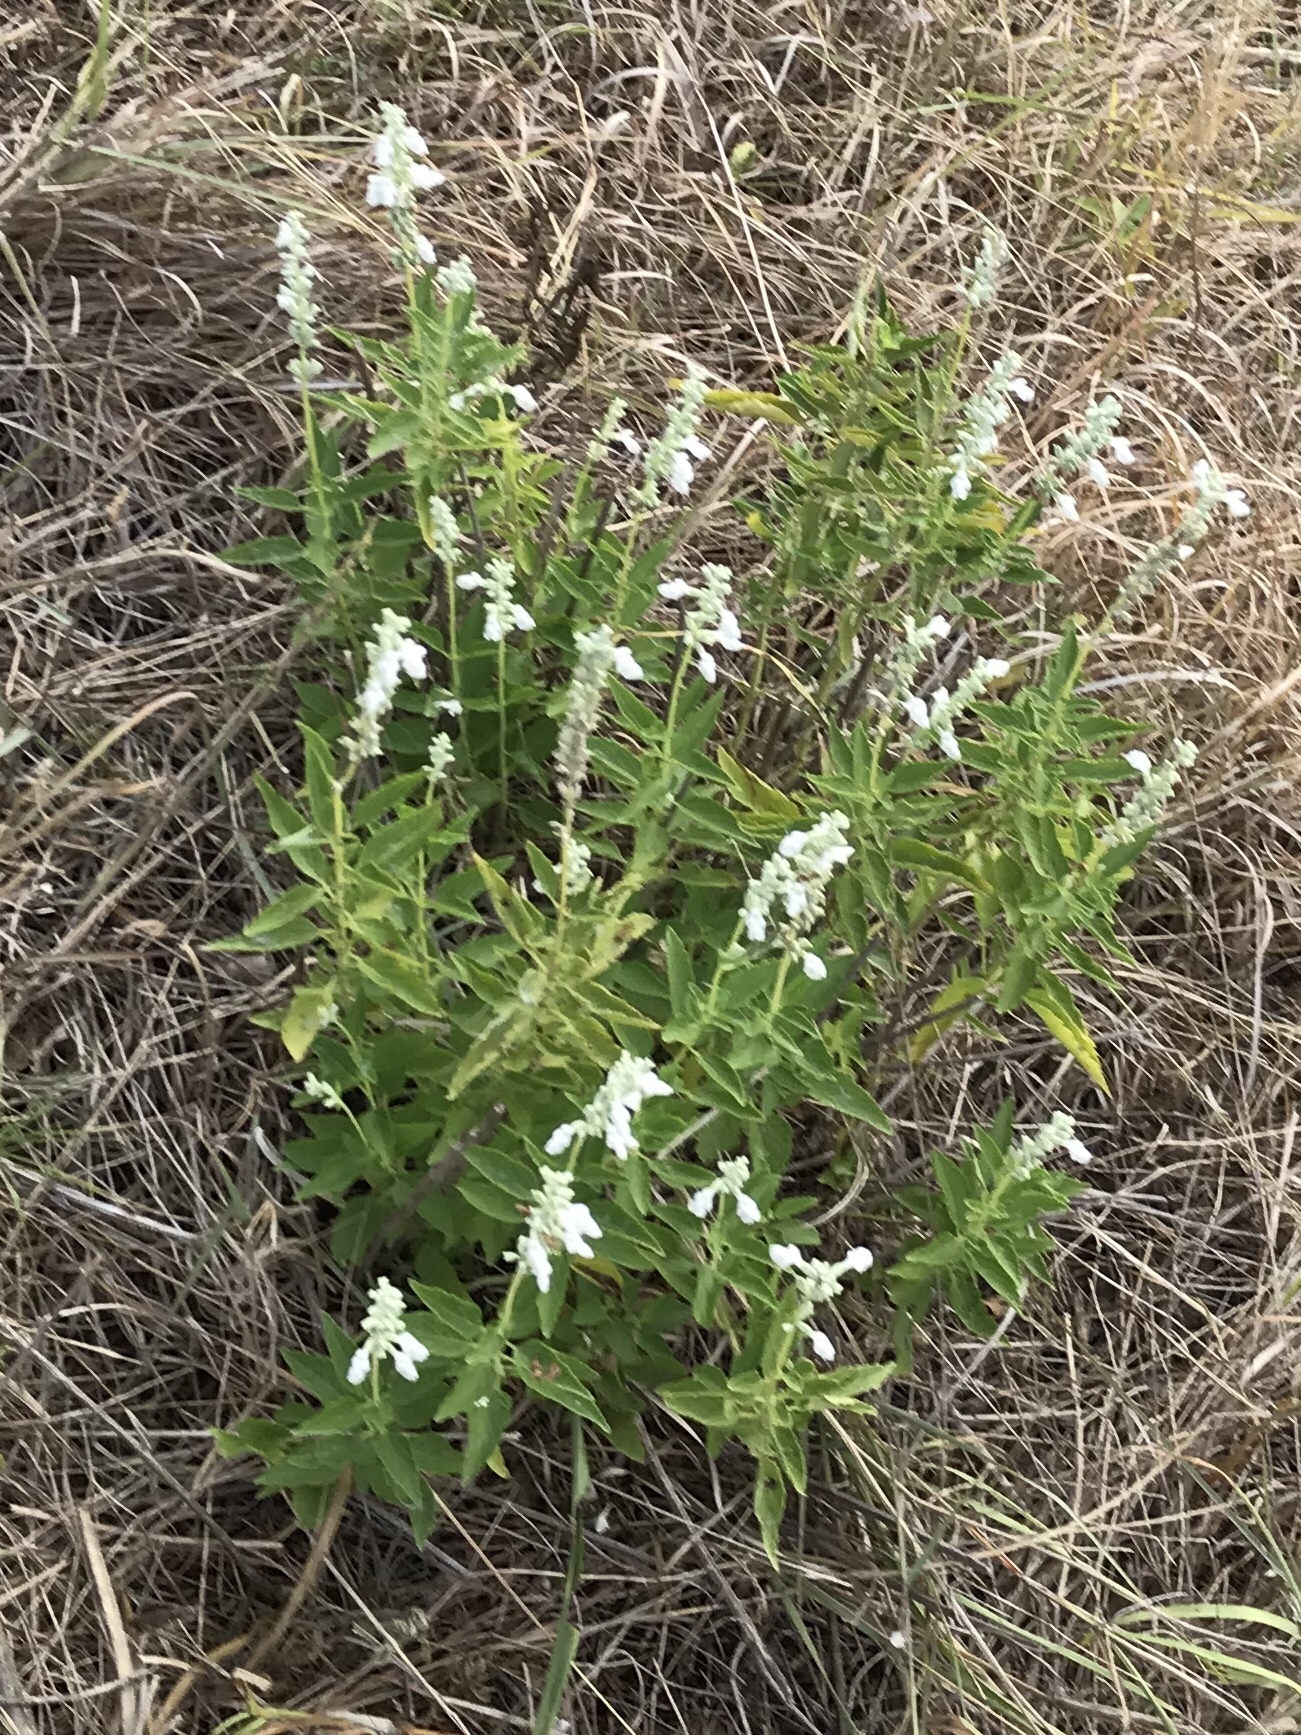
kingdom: Plantae
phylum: Tracheophyta
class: Magnoliopsida
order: Lamiales
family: Lamiaceae
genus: Salvia
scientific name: Salvia farinacea
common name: Mealy sage
